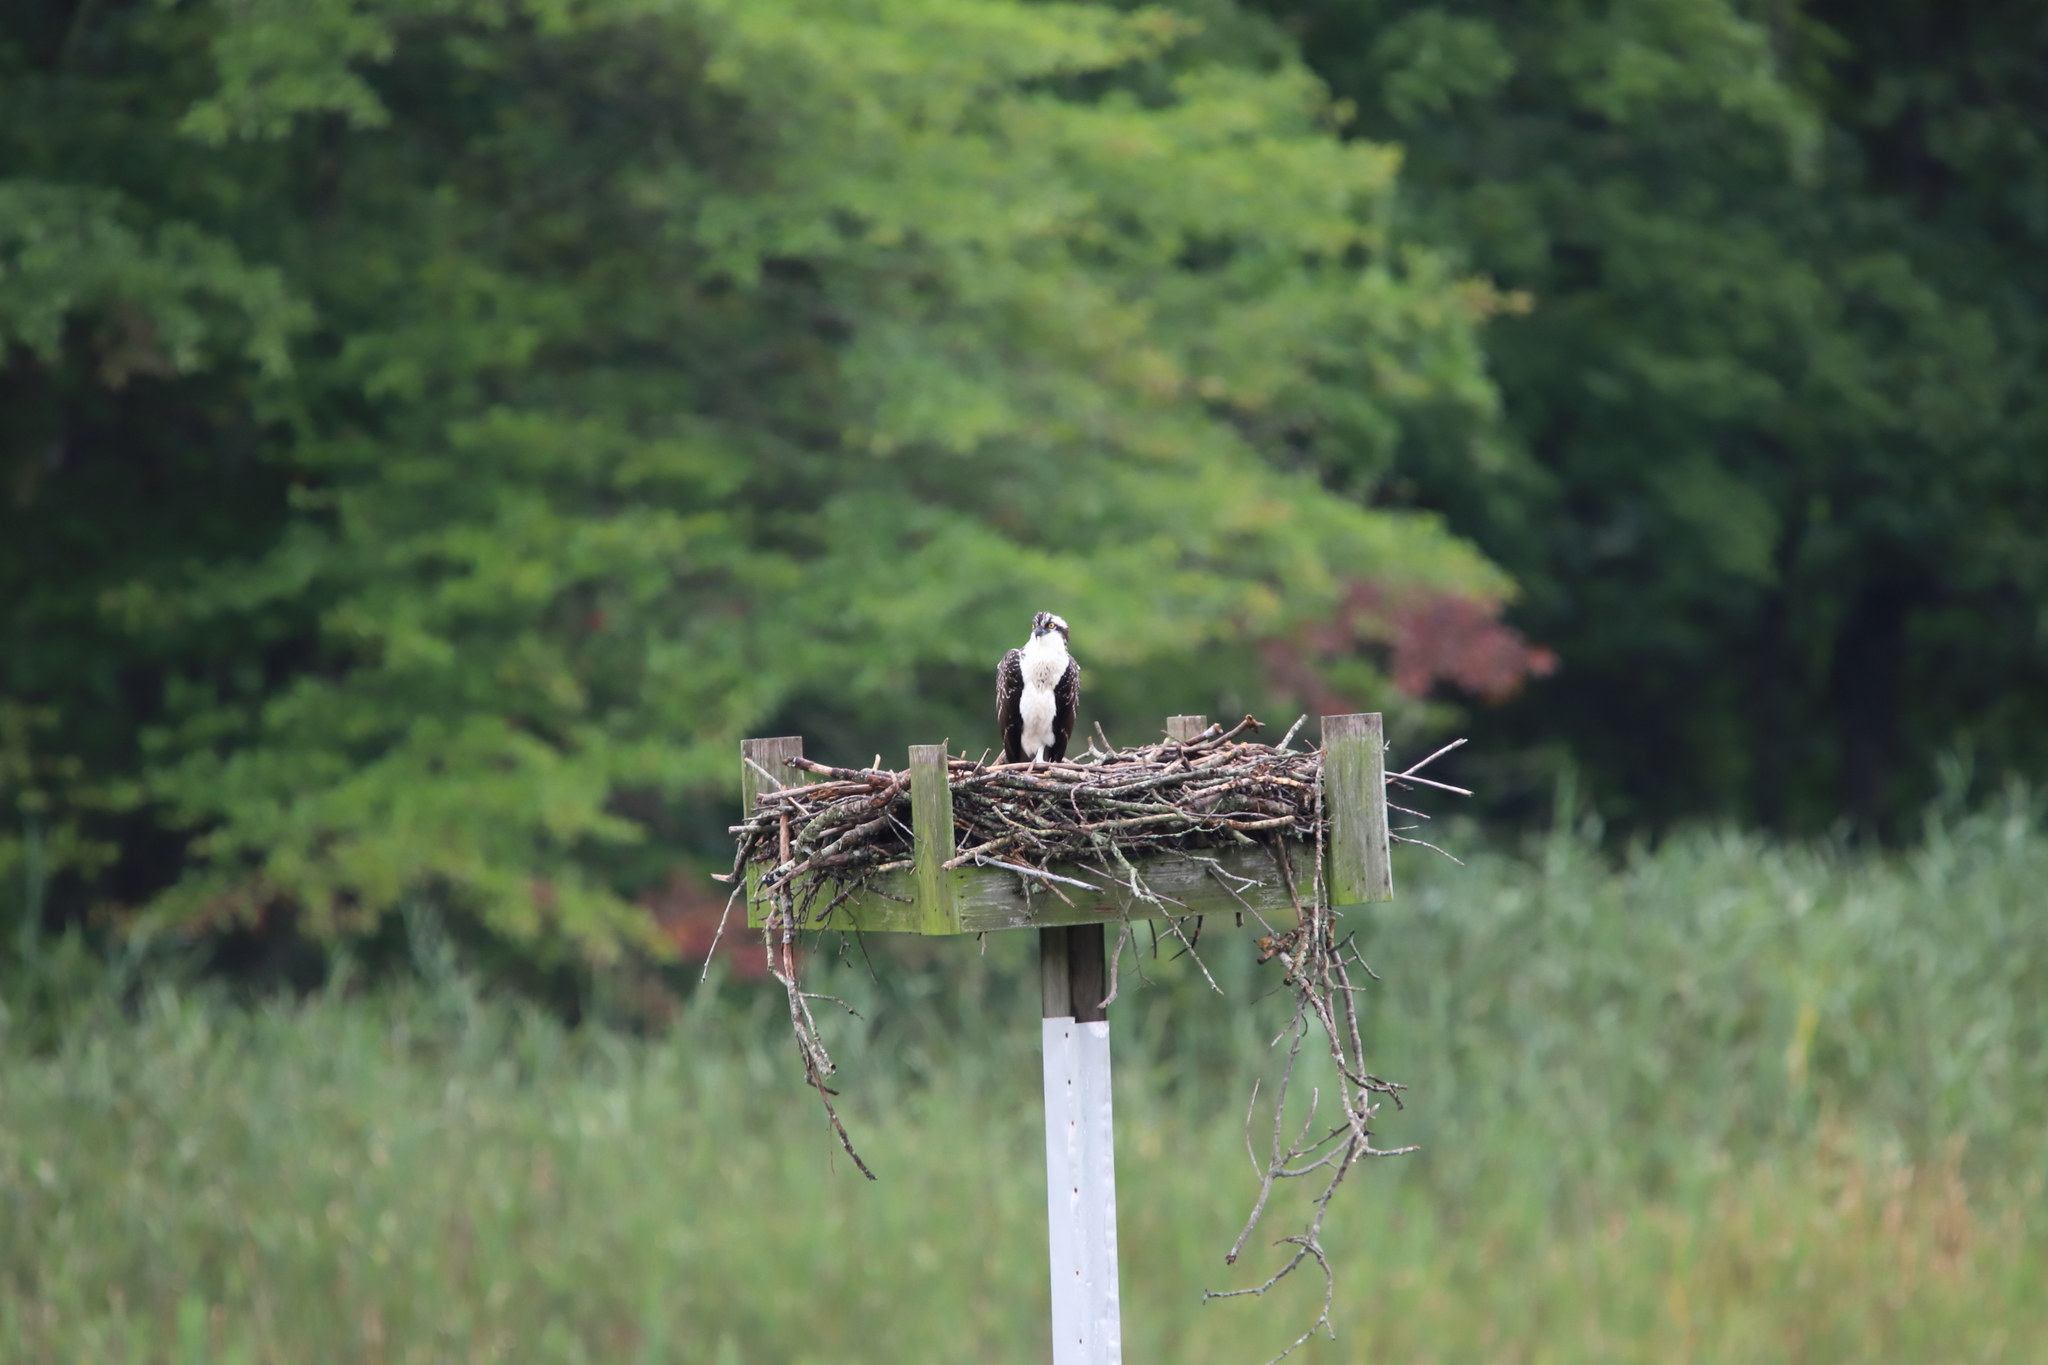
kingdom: Animalia
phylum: Chordata
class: Aves
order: Accipitriformes
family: Pandionidae
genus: Pandion
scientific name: Pandion haliaetus
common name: Osprey
